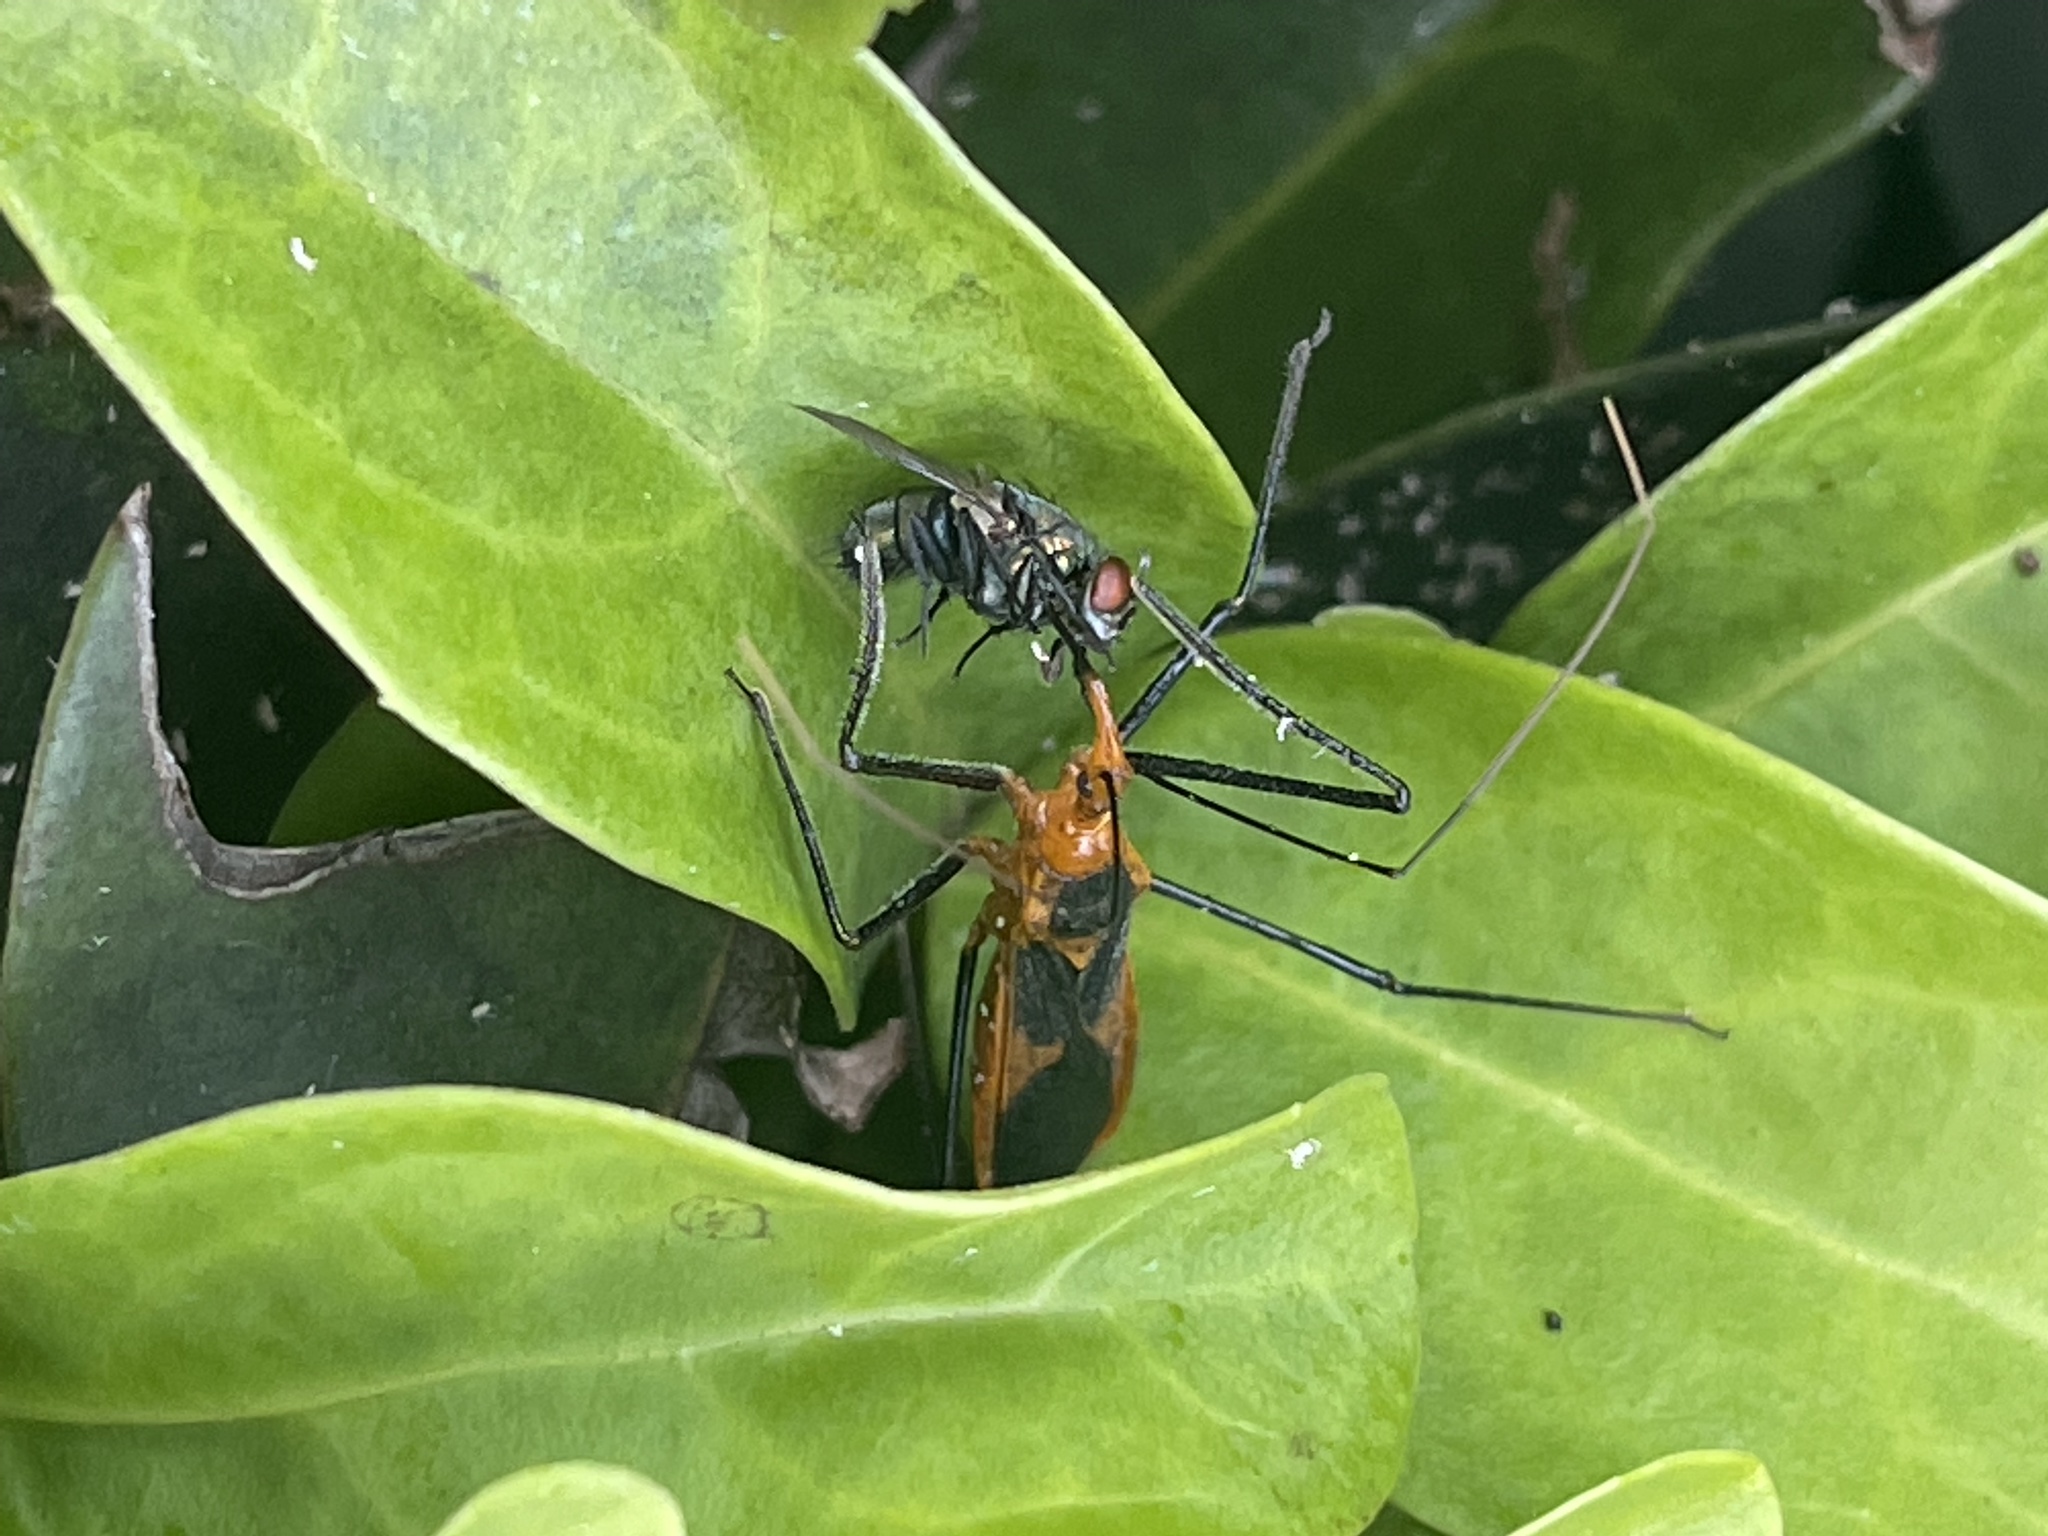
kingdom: Animalia
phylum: Arthropoda
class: Insecta
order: Hemiptera
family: Reduviidae
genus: Zelus
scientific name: Zelus longipes
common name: Milkweed assassin bug
